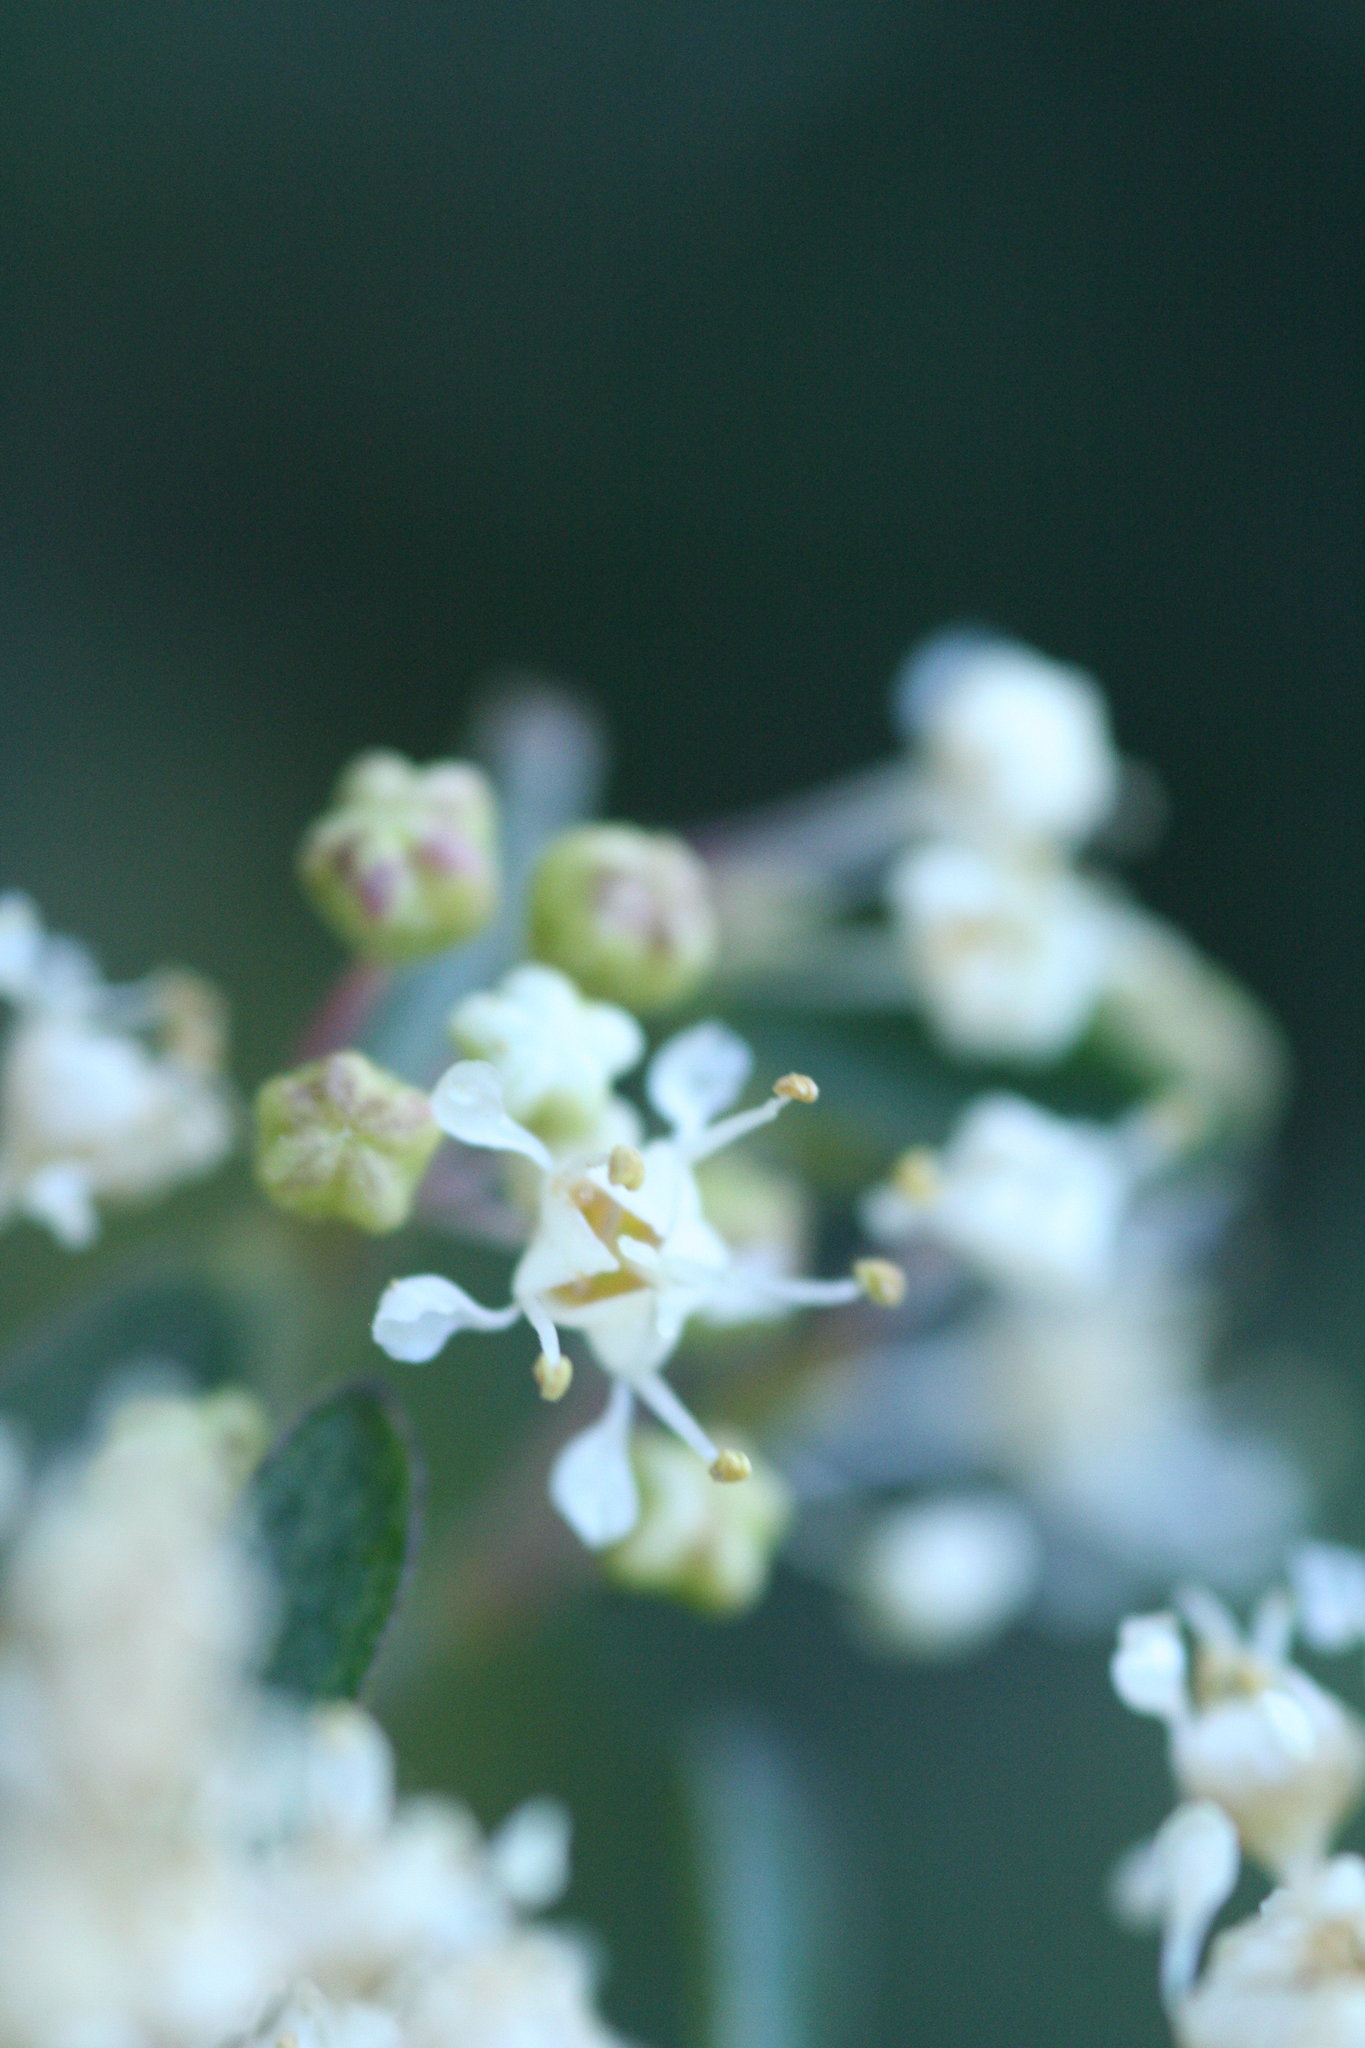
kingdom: Plantae
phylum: Tracheophyta
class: Magnoliopsida
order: Rosales
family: Rhamnaceae
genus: Ceanothus
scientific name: Ceanothus cordulatus
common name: Mountain whitethorn
